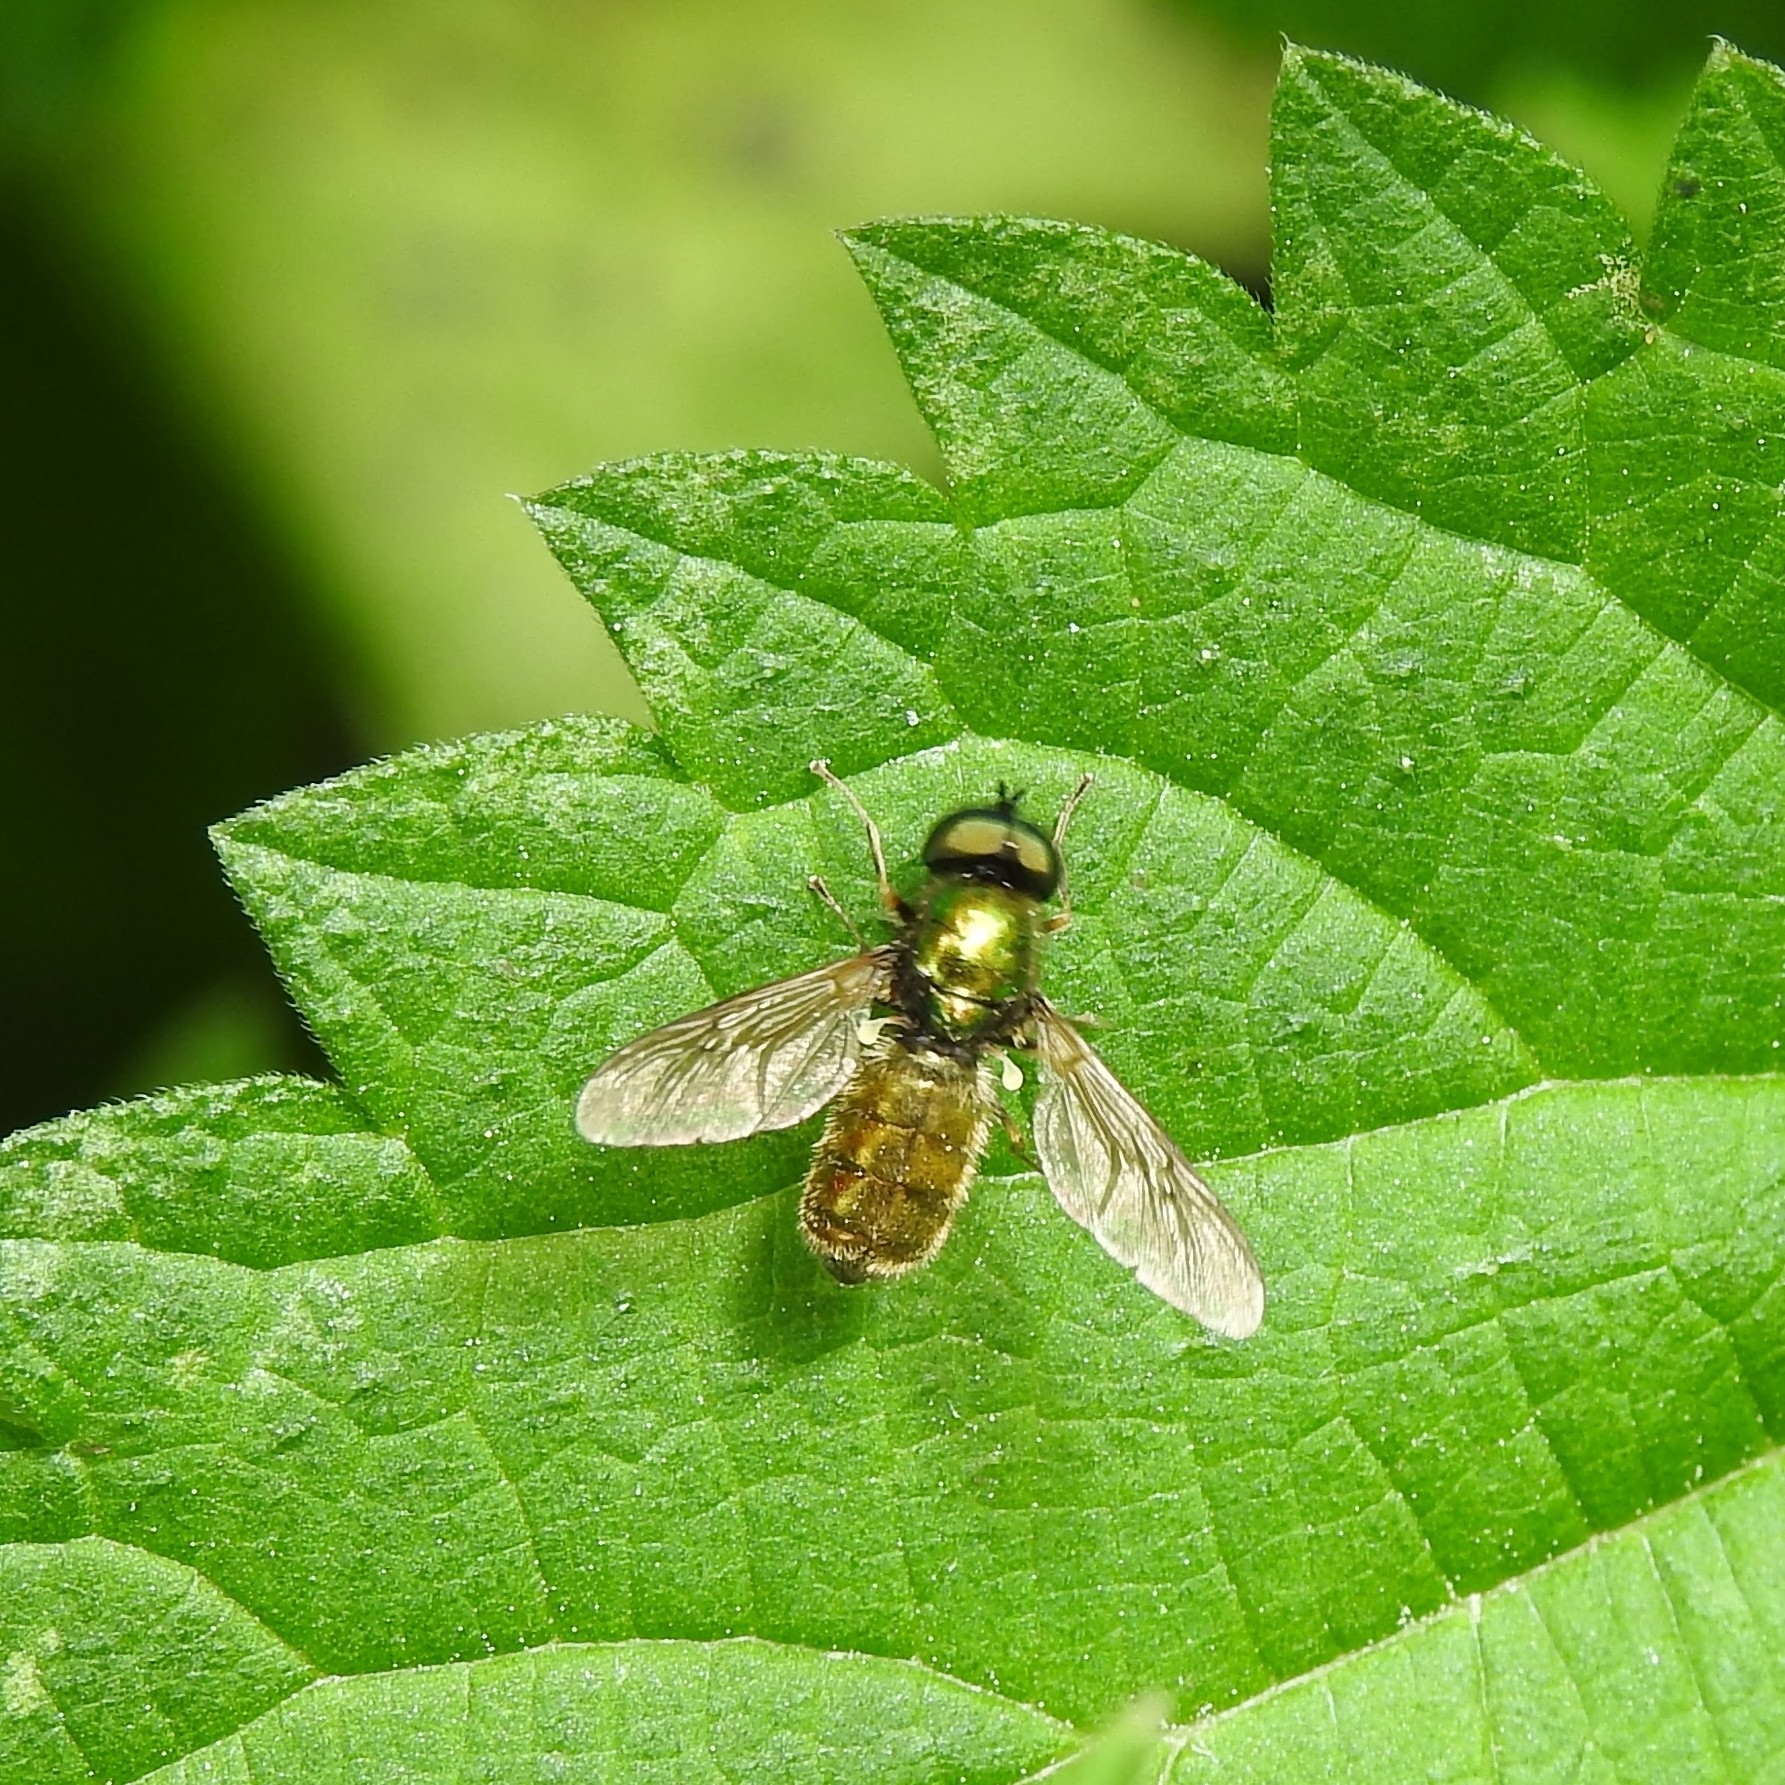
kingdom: Animalia
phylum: Arthropoda
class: Insecta
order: Diptera
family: Stratiomyidae
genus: Chloromyia
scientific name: Chloromyia formosa
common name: Soldier fly
